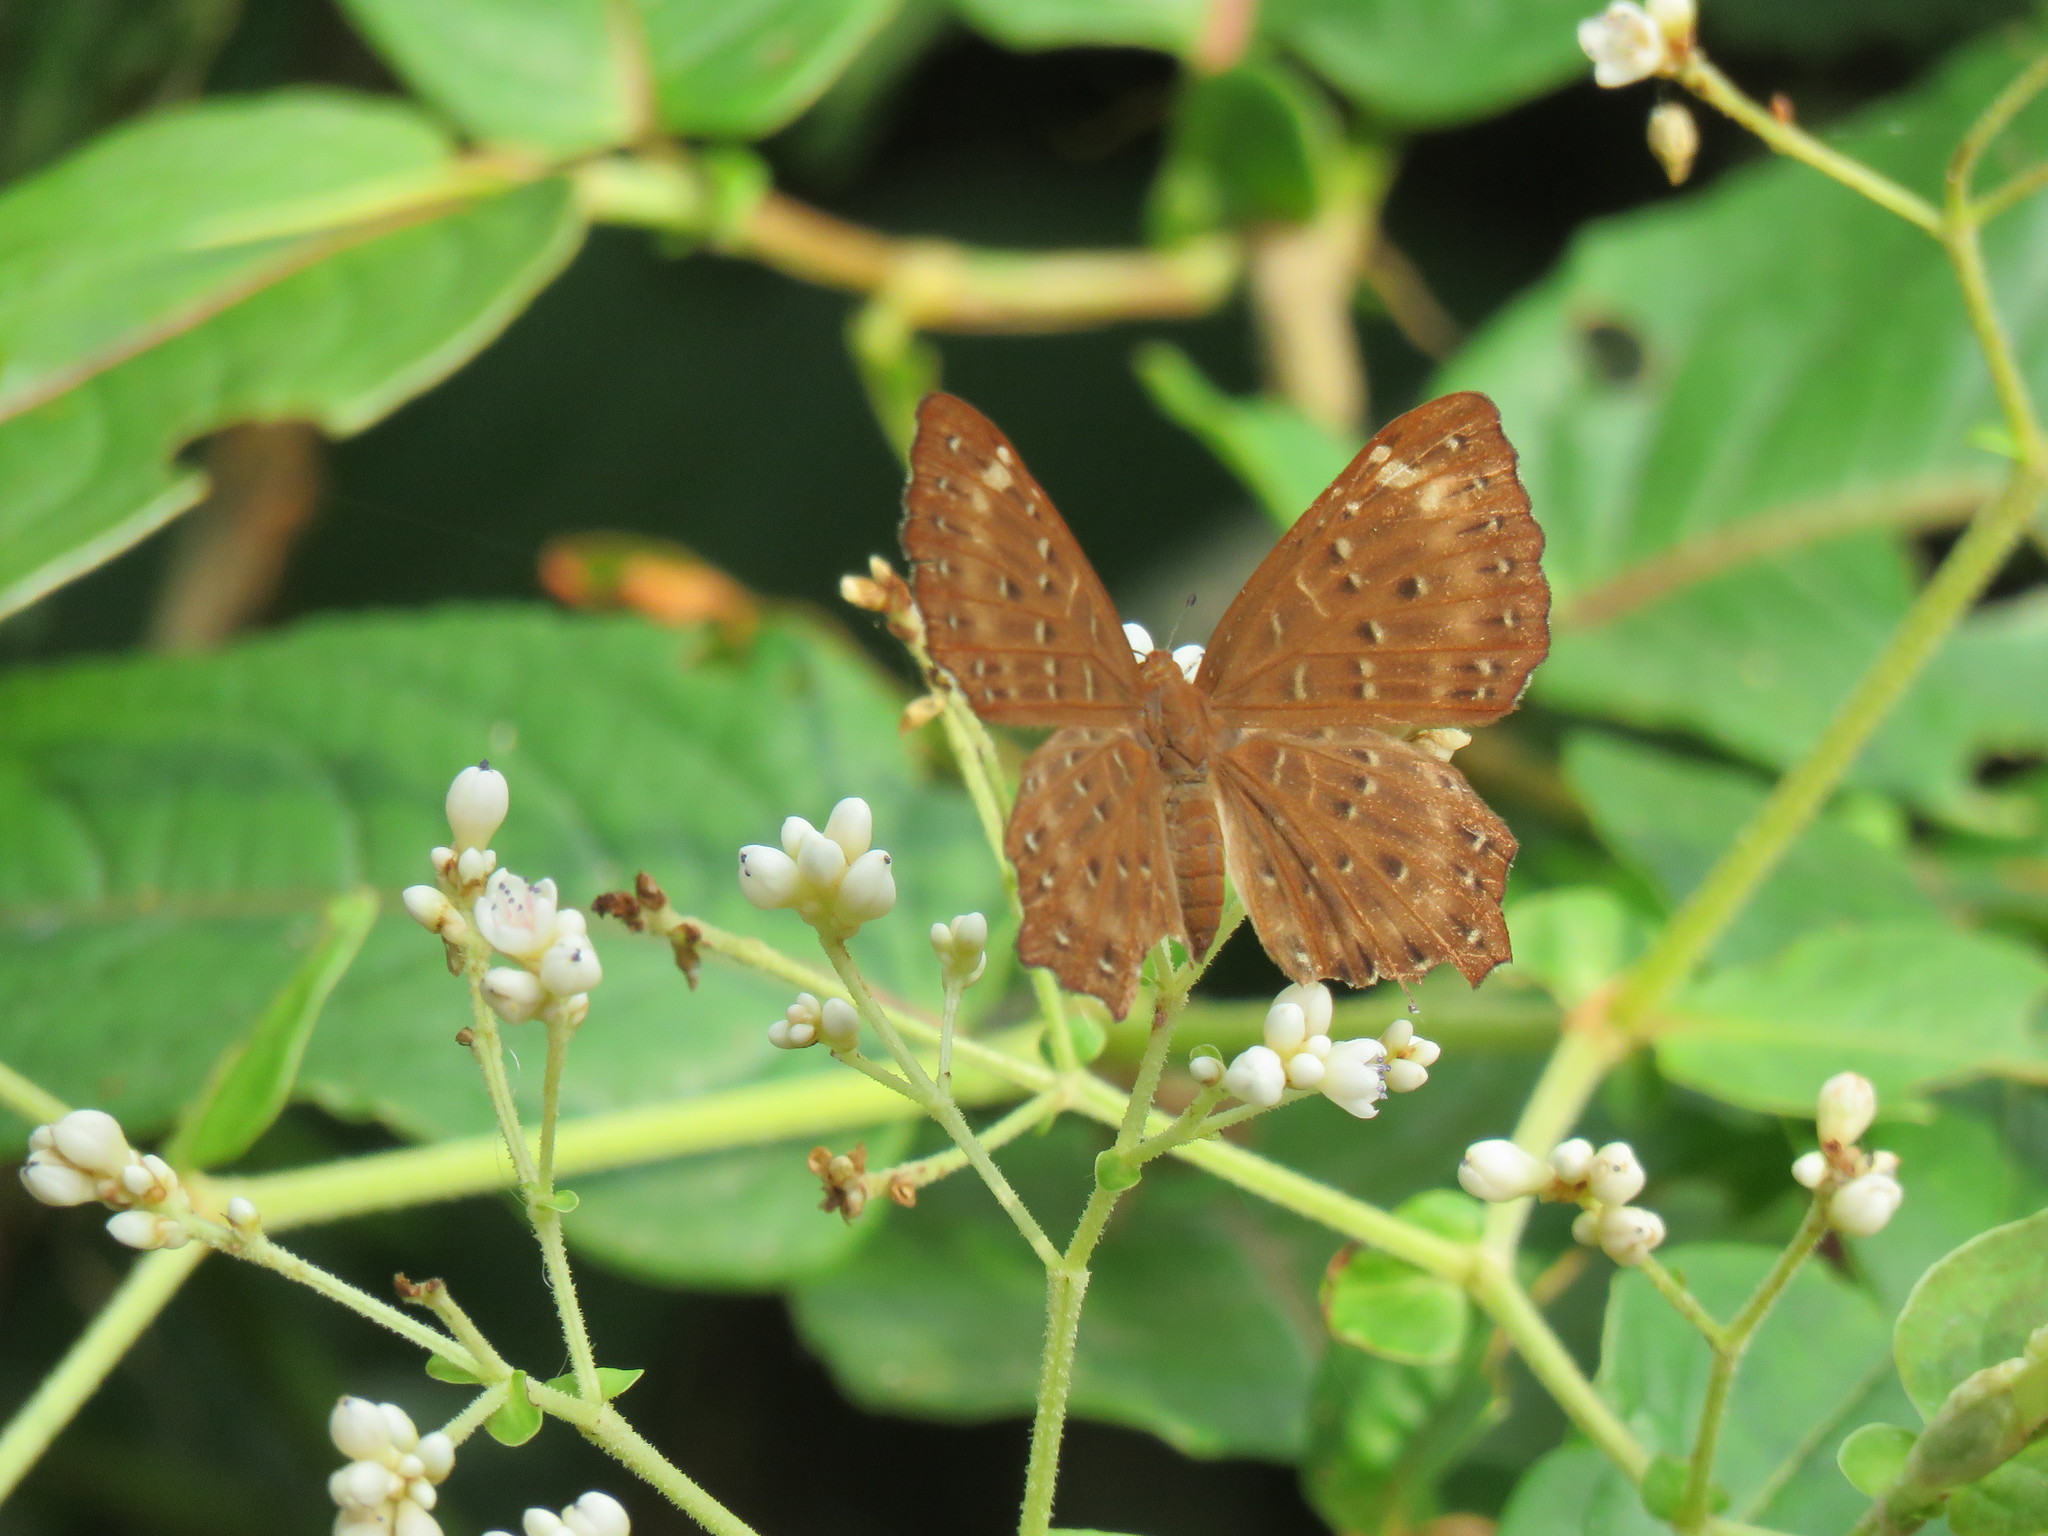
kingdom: Animalia
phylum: Arthropoda
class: Insecta
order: Lepidoptera
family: Riodinidae
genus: Zemeros
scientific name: Zemeros flegyas
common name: Punchinello
